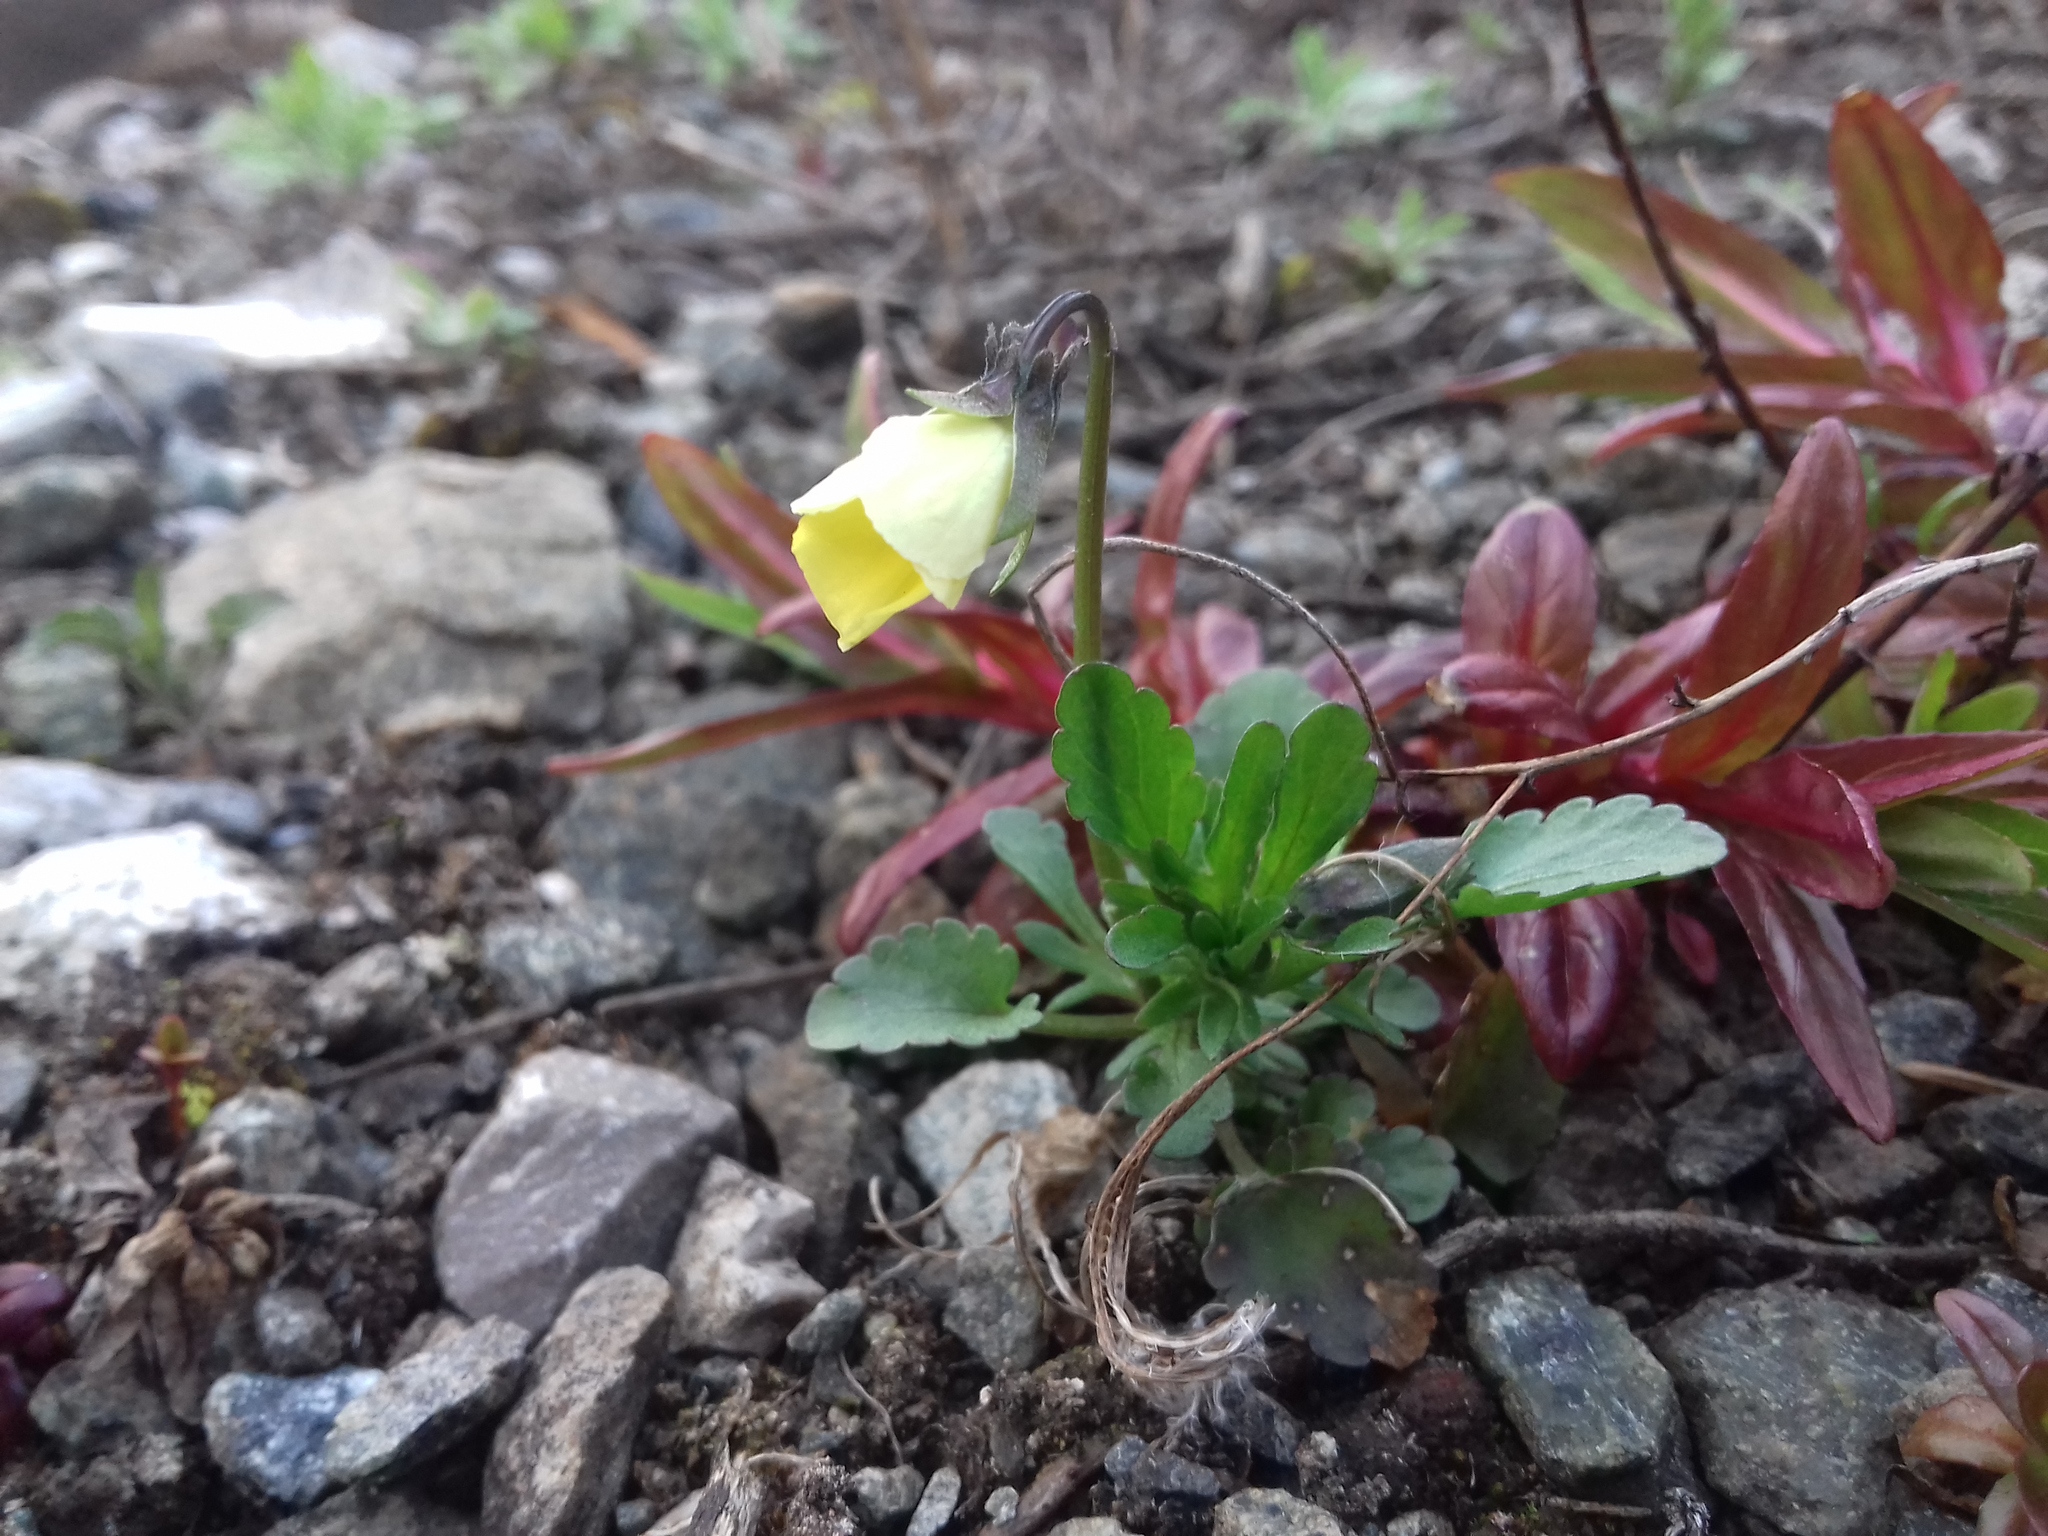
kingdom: Plantae
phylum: Tracheophyta
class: Magnoliopsida
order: Malpighiales
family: Violaceae
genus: Viola
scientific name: Viola arvensis
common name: Field pansy
